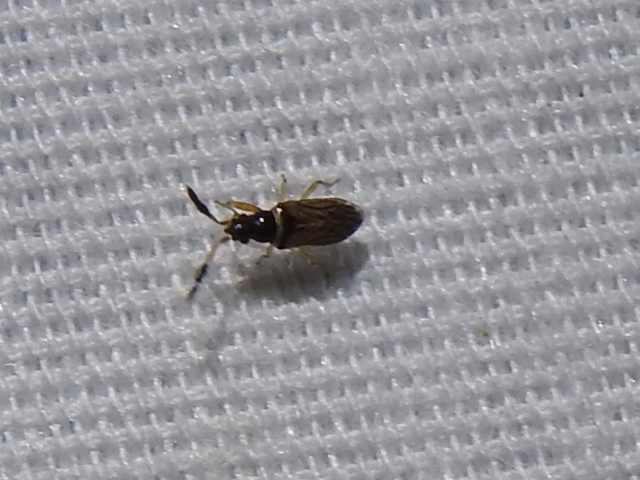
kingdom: Animalia
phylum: Arthropoda
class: Insecta
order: Hemiptera
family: Rhyparochromidae
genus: Ptochiomera
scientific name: Ptochiomera nodosa
